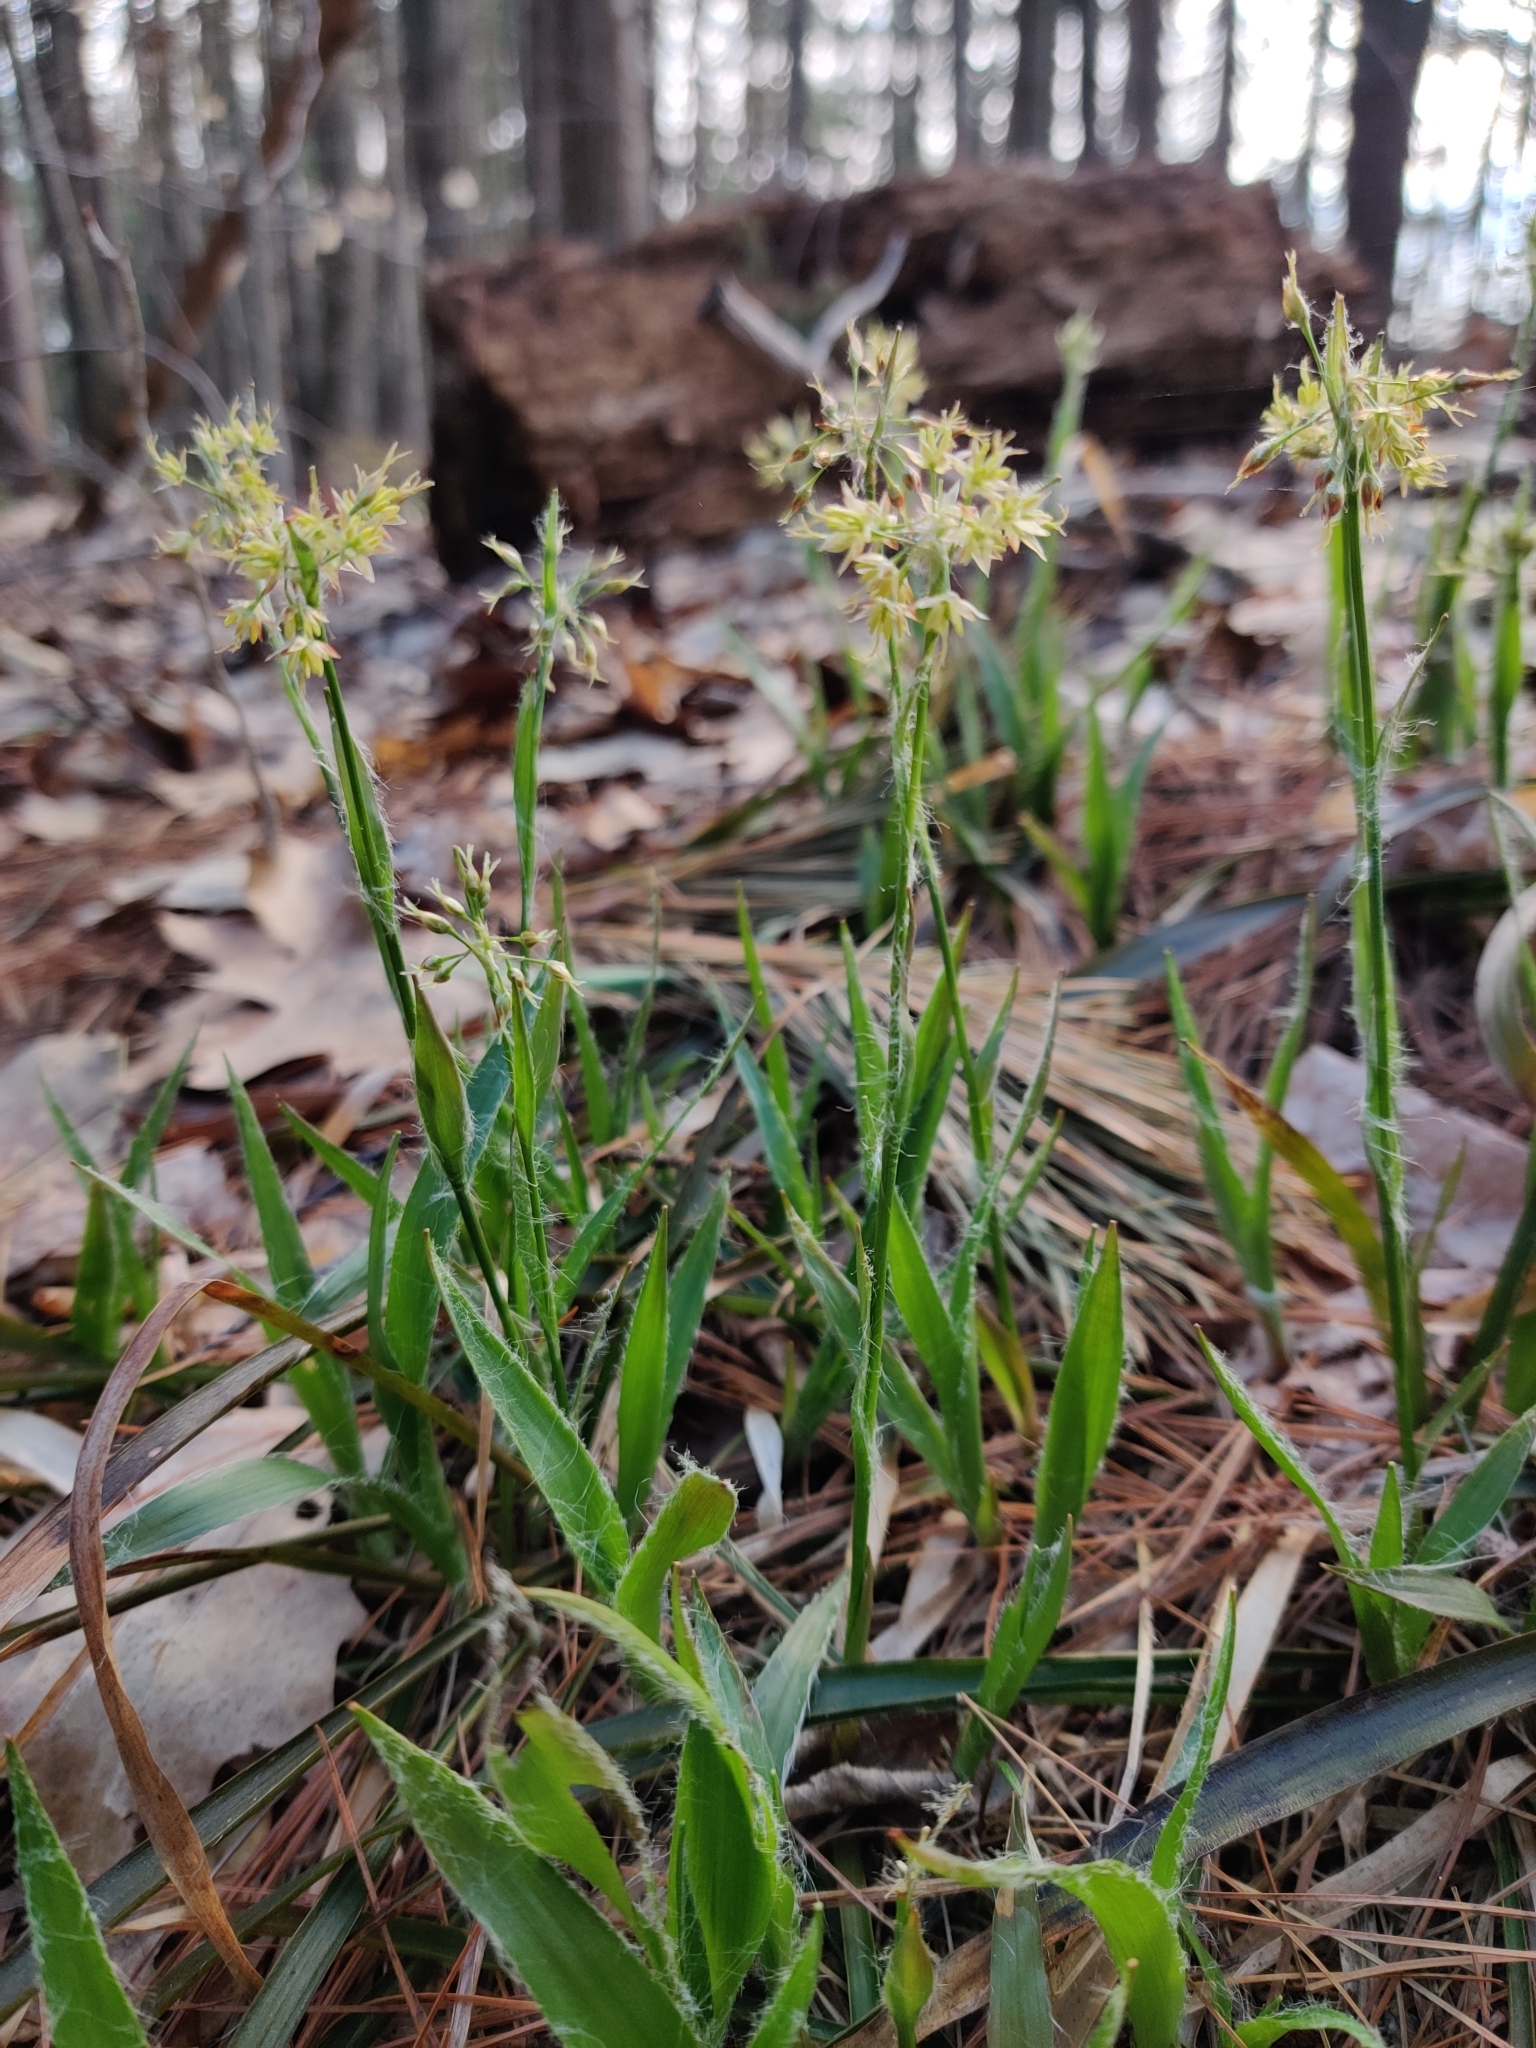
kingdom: Plantae
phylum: Tracheophyta
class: Liliopsida
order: Poales
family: Juncaceae
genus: Luzula
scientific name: Luzula acuminata
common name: Hairy woodrush
